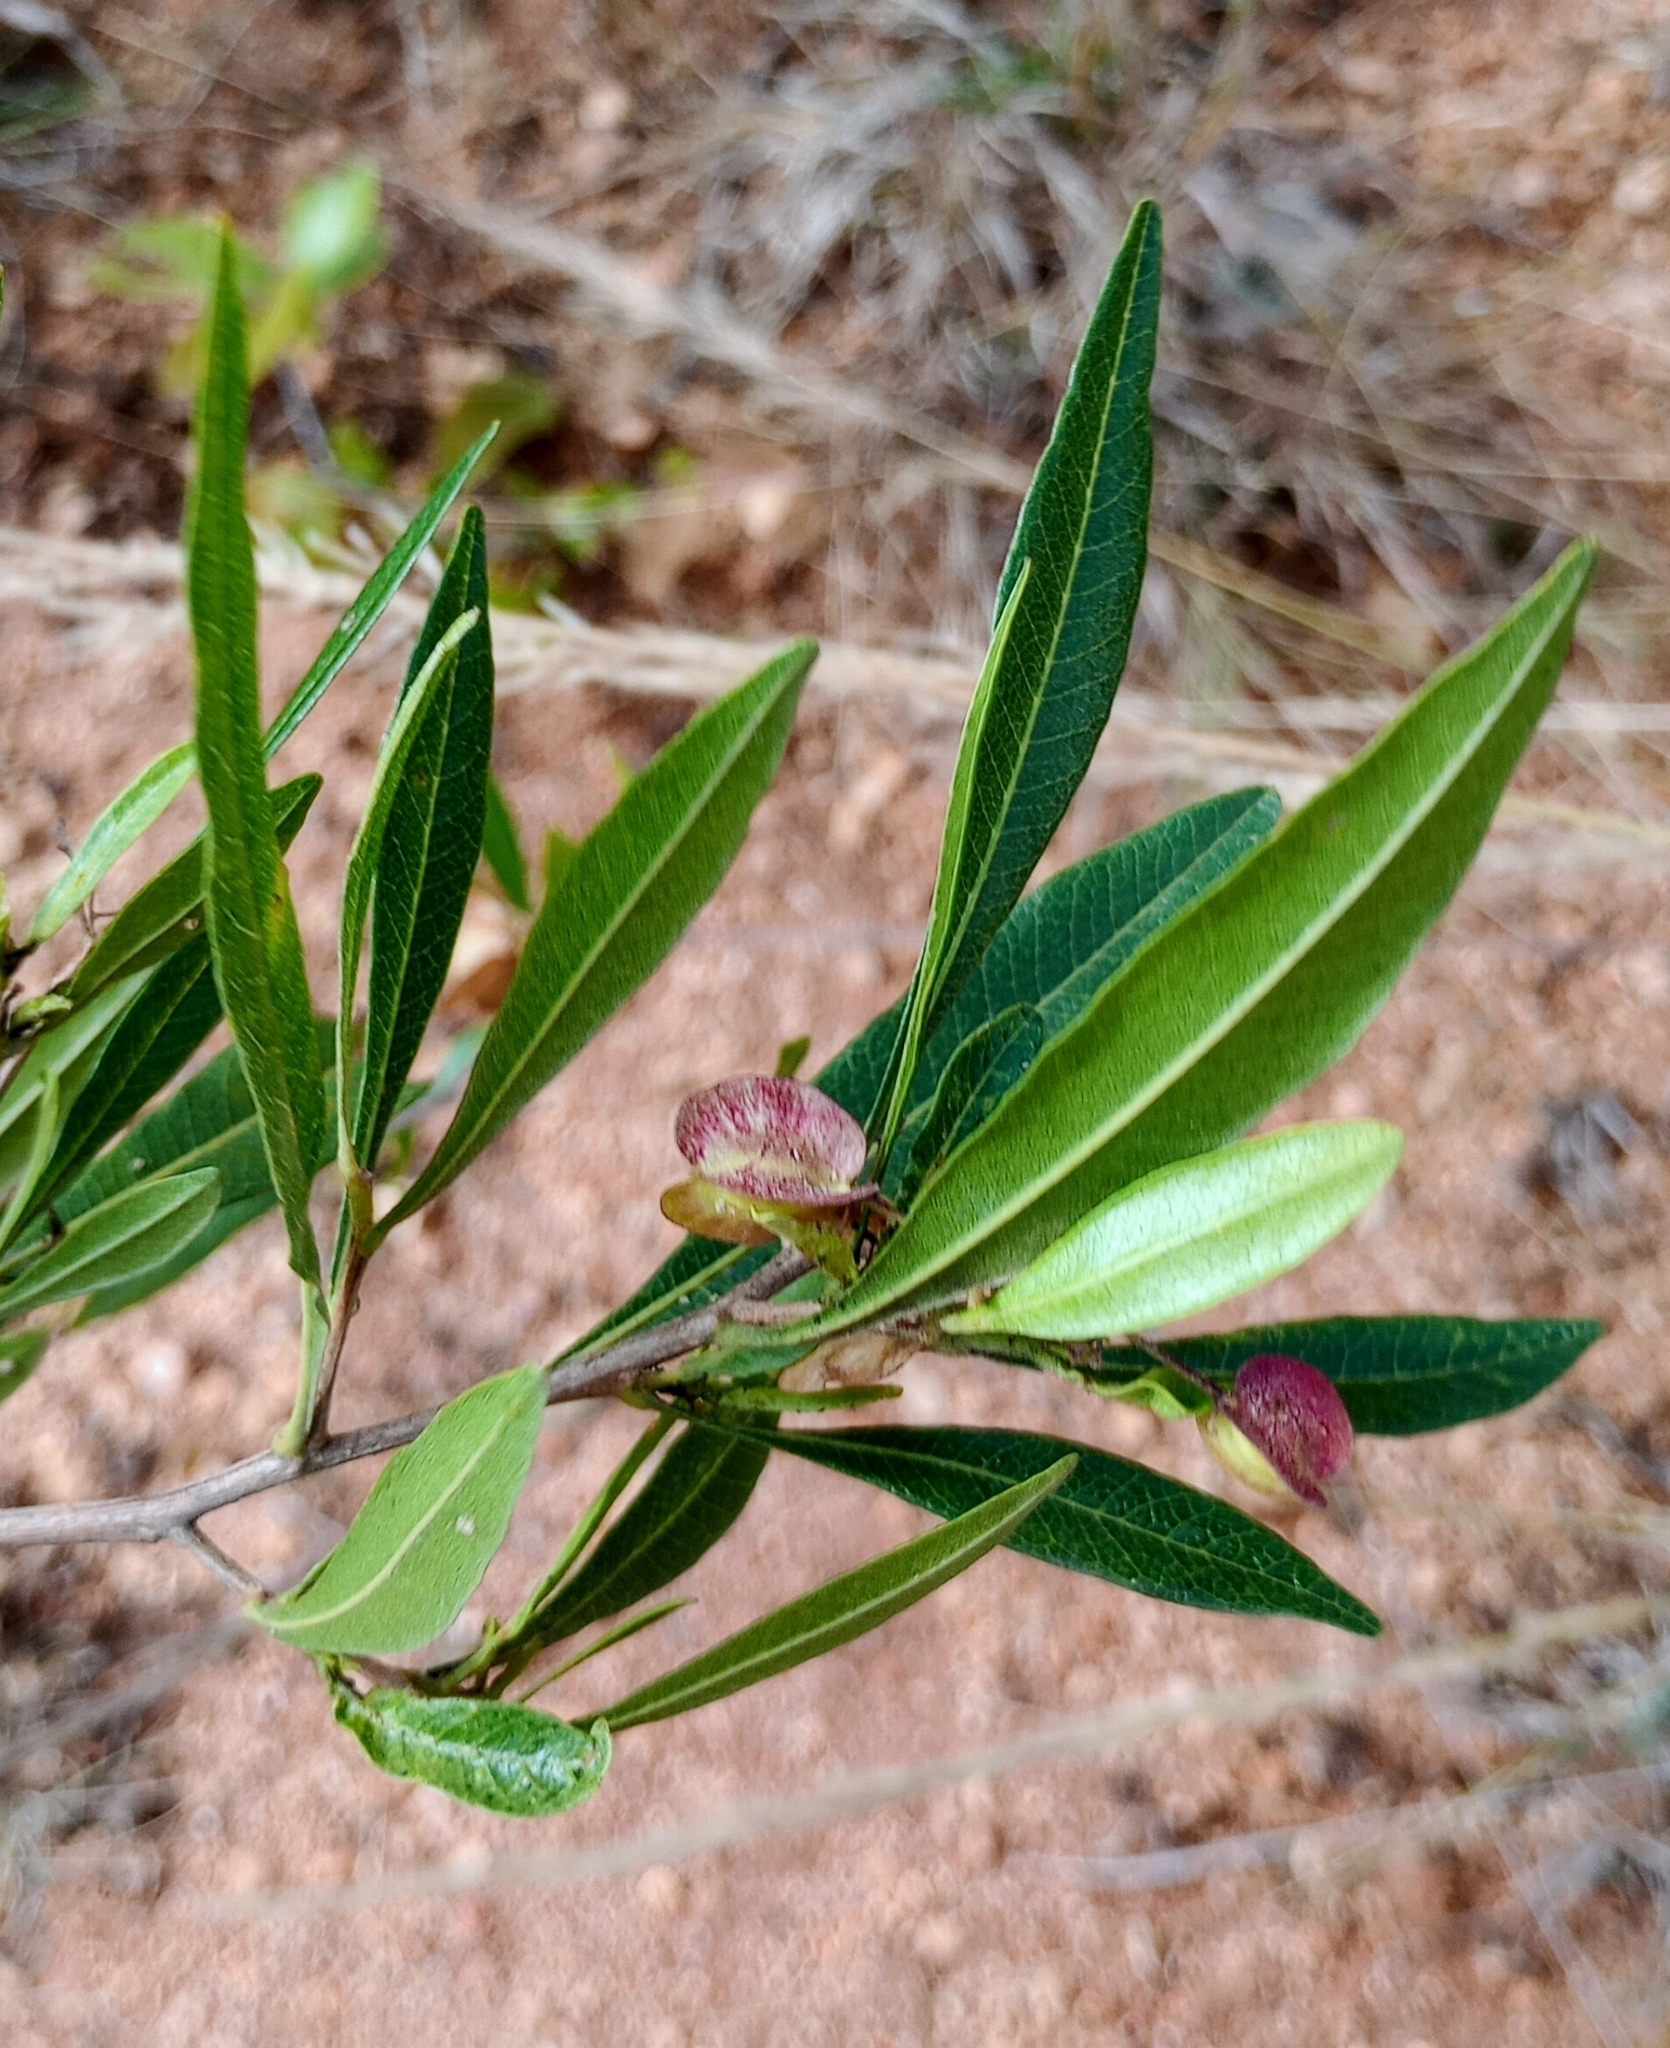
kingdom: Plantae
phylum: Tracheophyta
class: Magnoliopsida
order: Sapindales
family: Sapindaceae
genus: Dodonaea
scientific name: Dodonaea viscosa
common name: Hopbush
